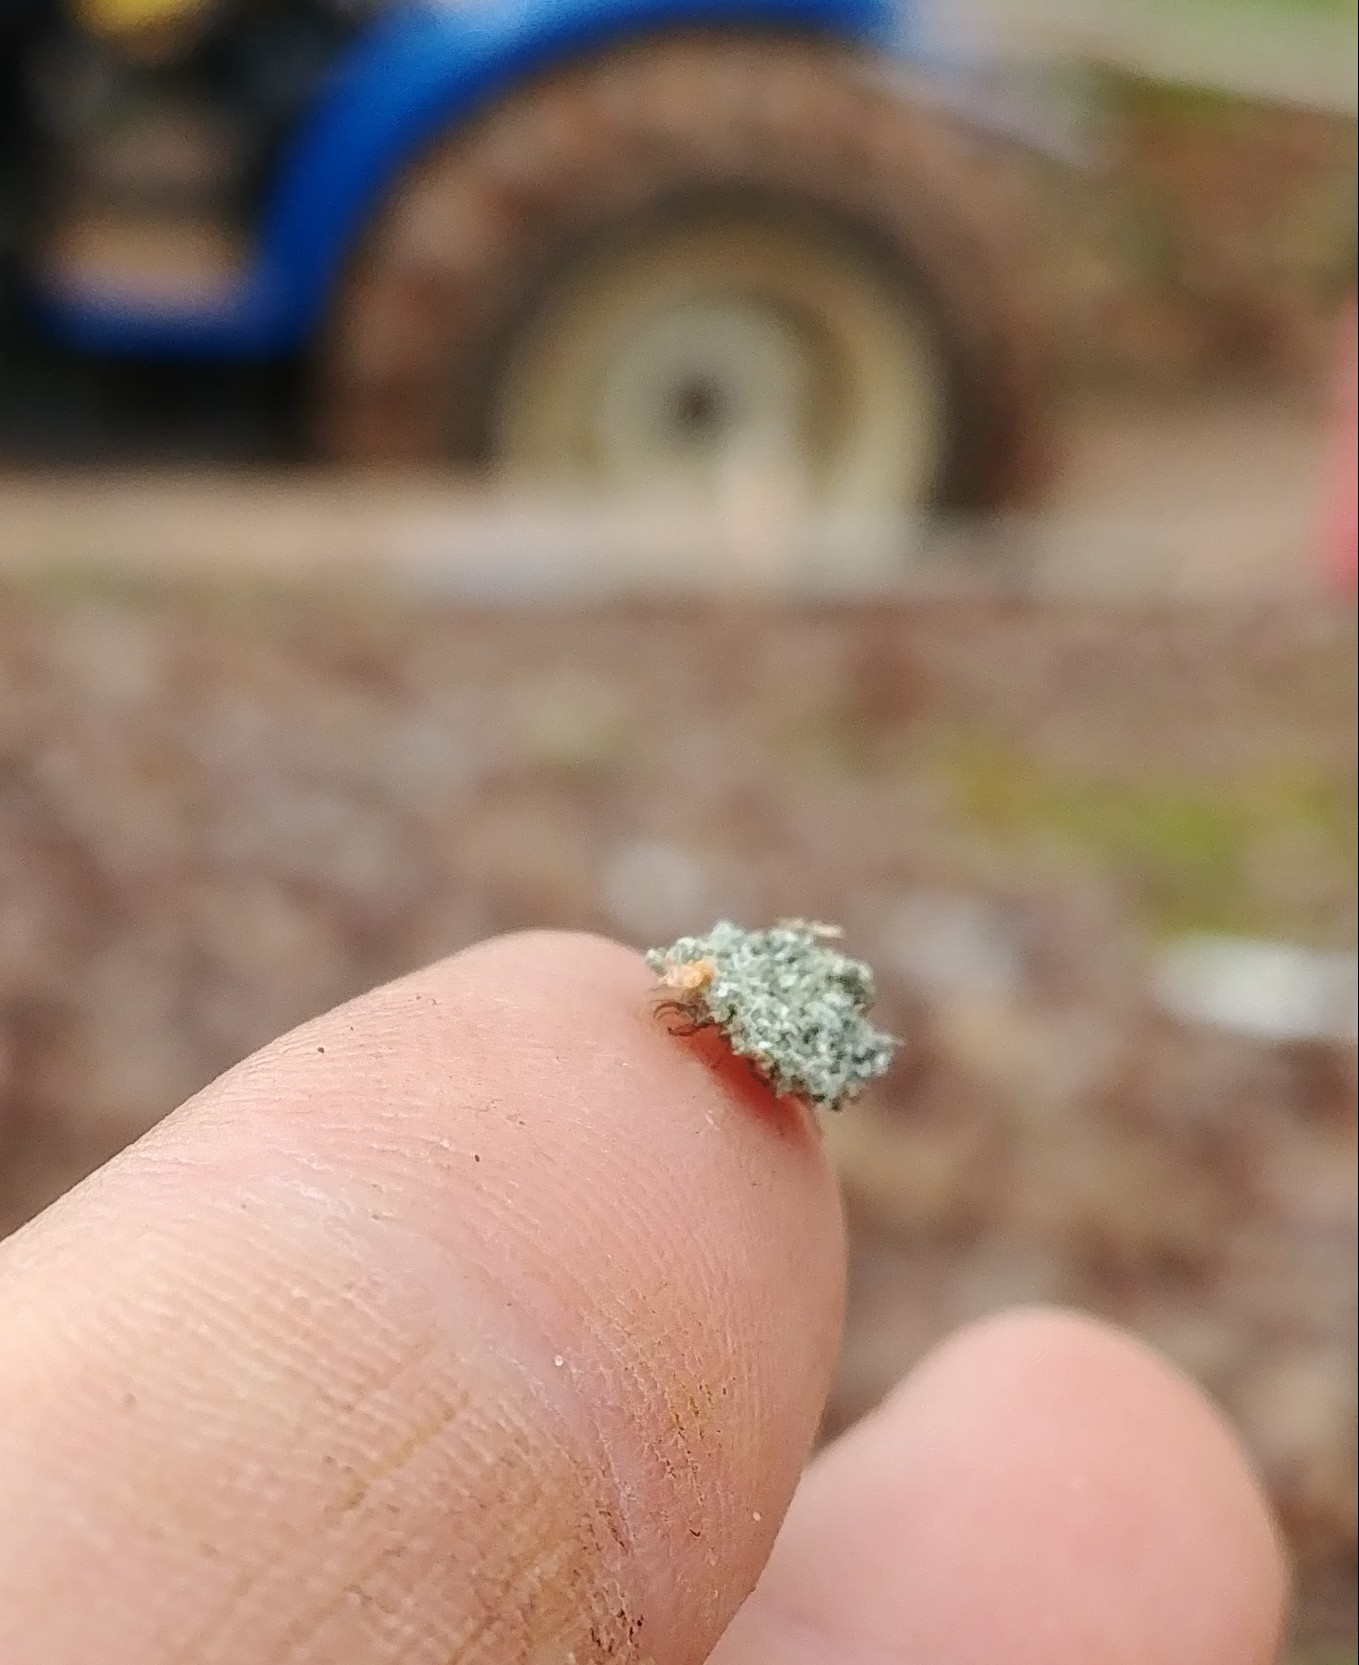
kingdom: Animalia
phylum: Arthropoda
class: Insecta
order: Neuroptera
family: Chrysopidae
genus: Leucochrysa
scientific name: Leucochrysa pavida
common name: Lichen-carrying green lacewing
